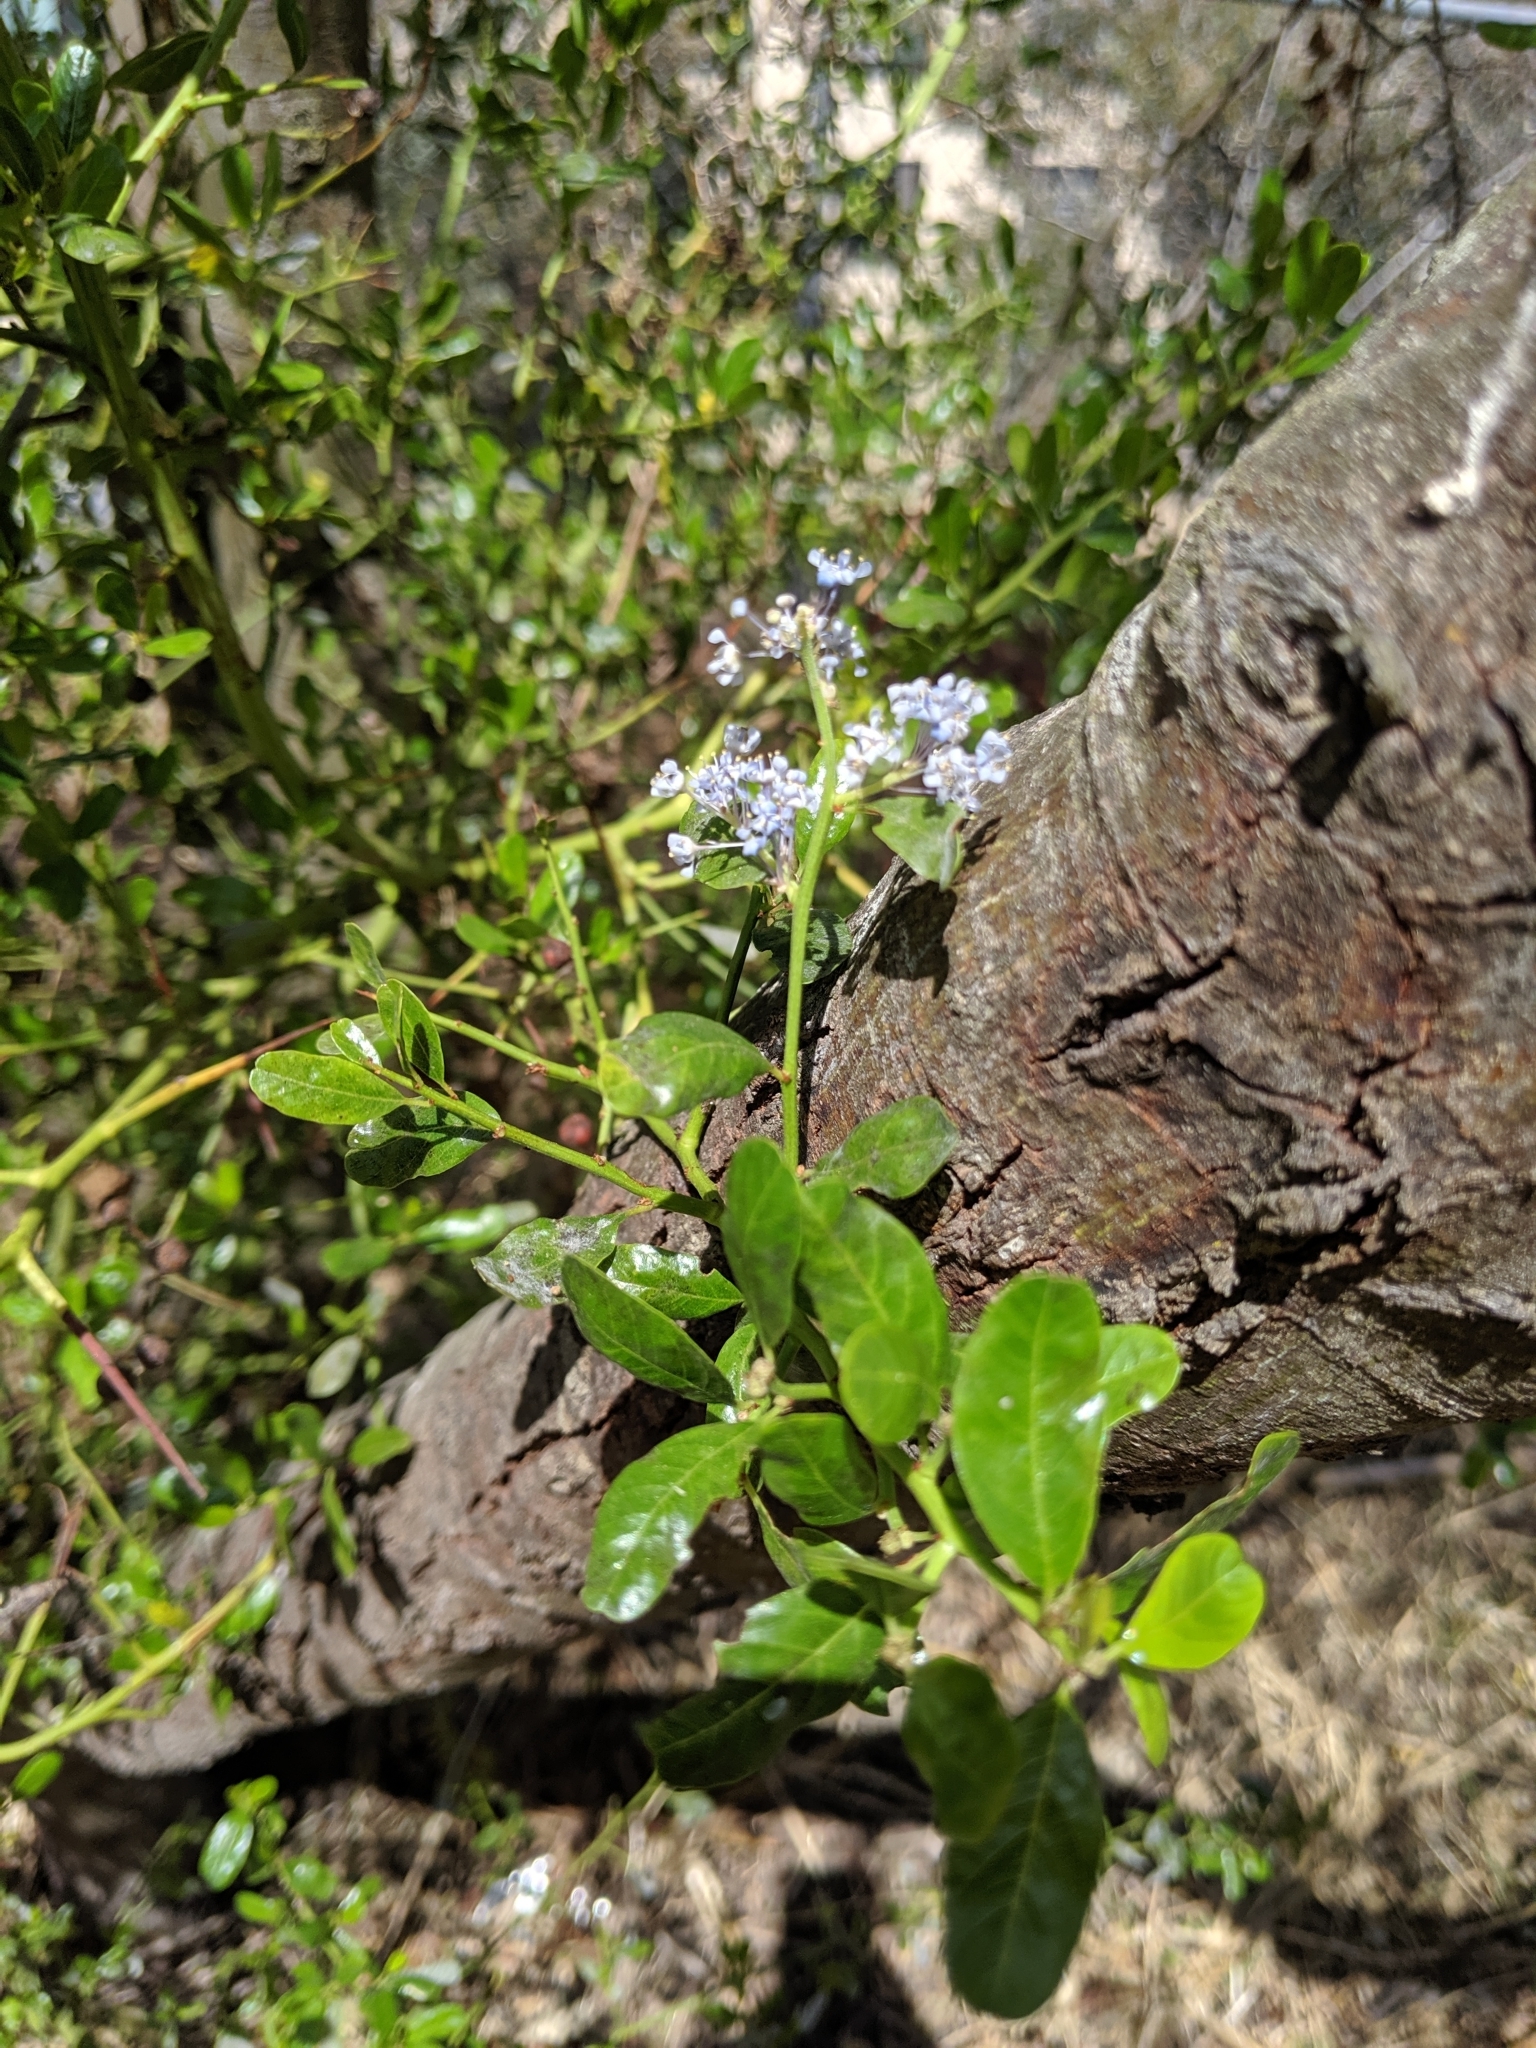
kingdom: Plantae
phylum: Tracheophyta
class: Magnoliopsida
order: Rosales
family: Rhamnaceae
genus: Ceanothus
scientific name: Ceanothus spinosus
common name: Greenbark whitethorn
